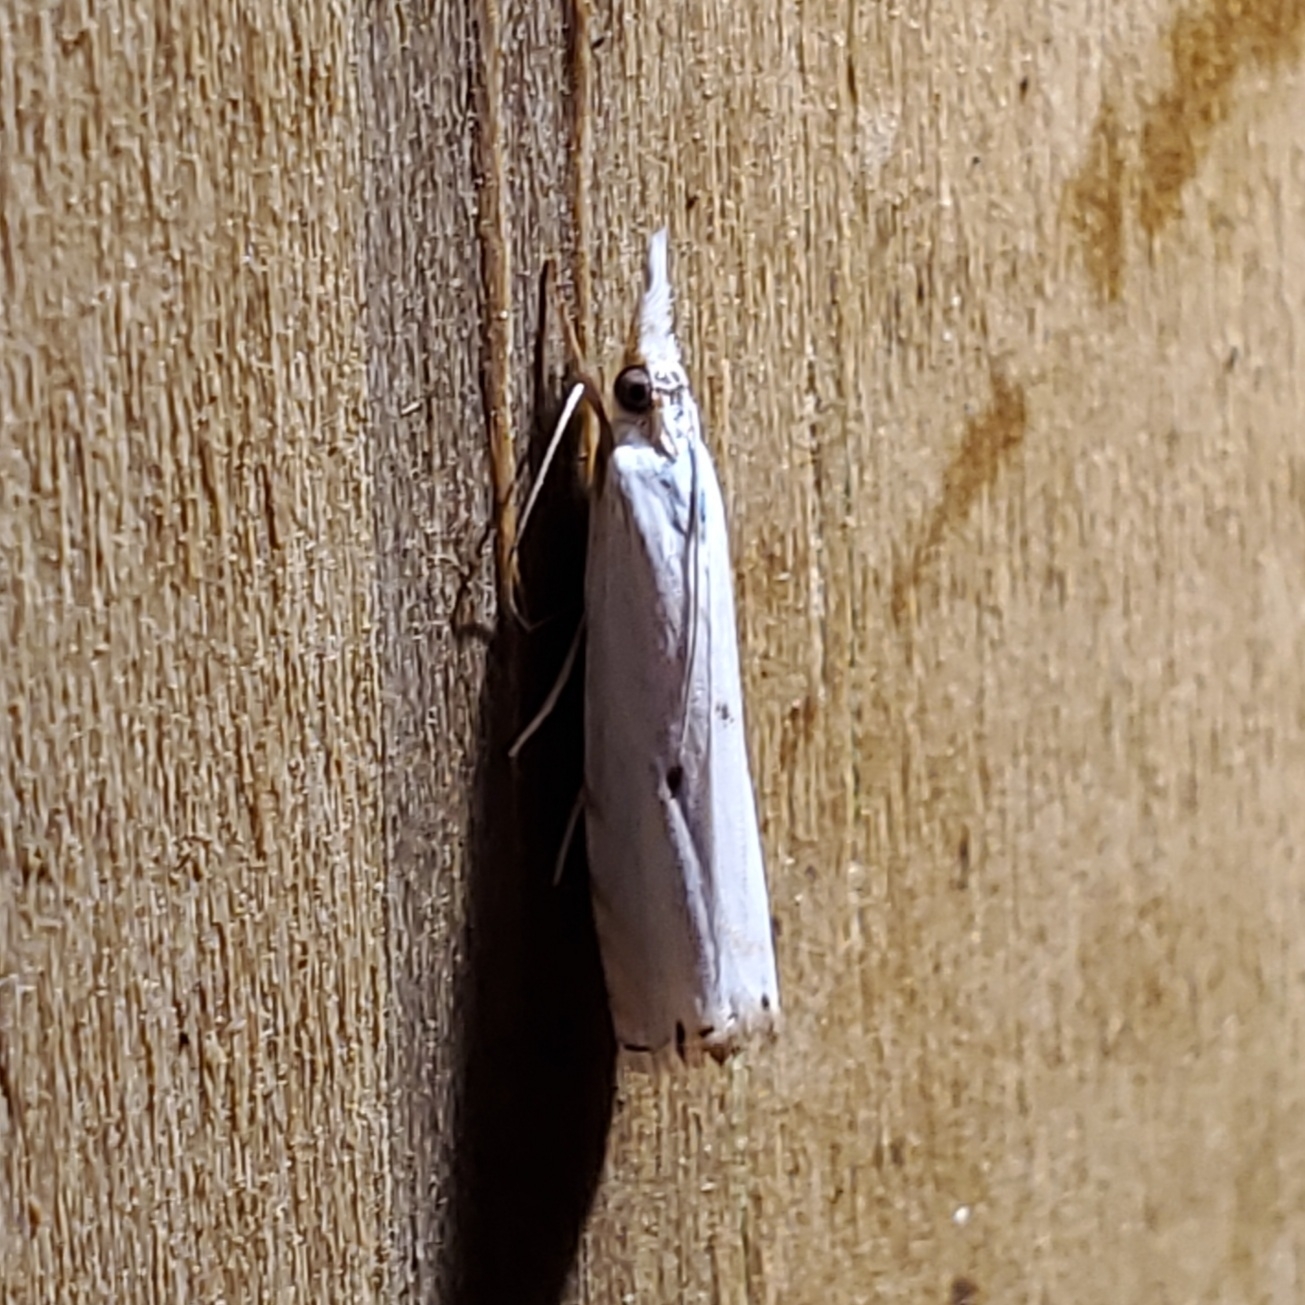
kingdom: Animalia
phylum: Arthropoda
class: Insecta
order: Lepidoptera
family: Crambidae
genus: Microcrambus
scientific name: Microcrambus biguttellus
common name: Gold-stripe grass-veneer moth
